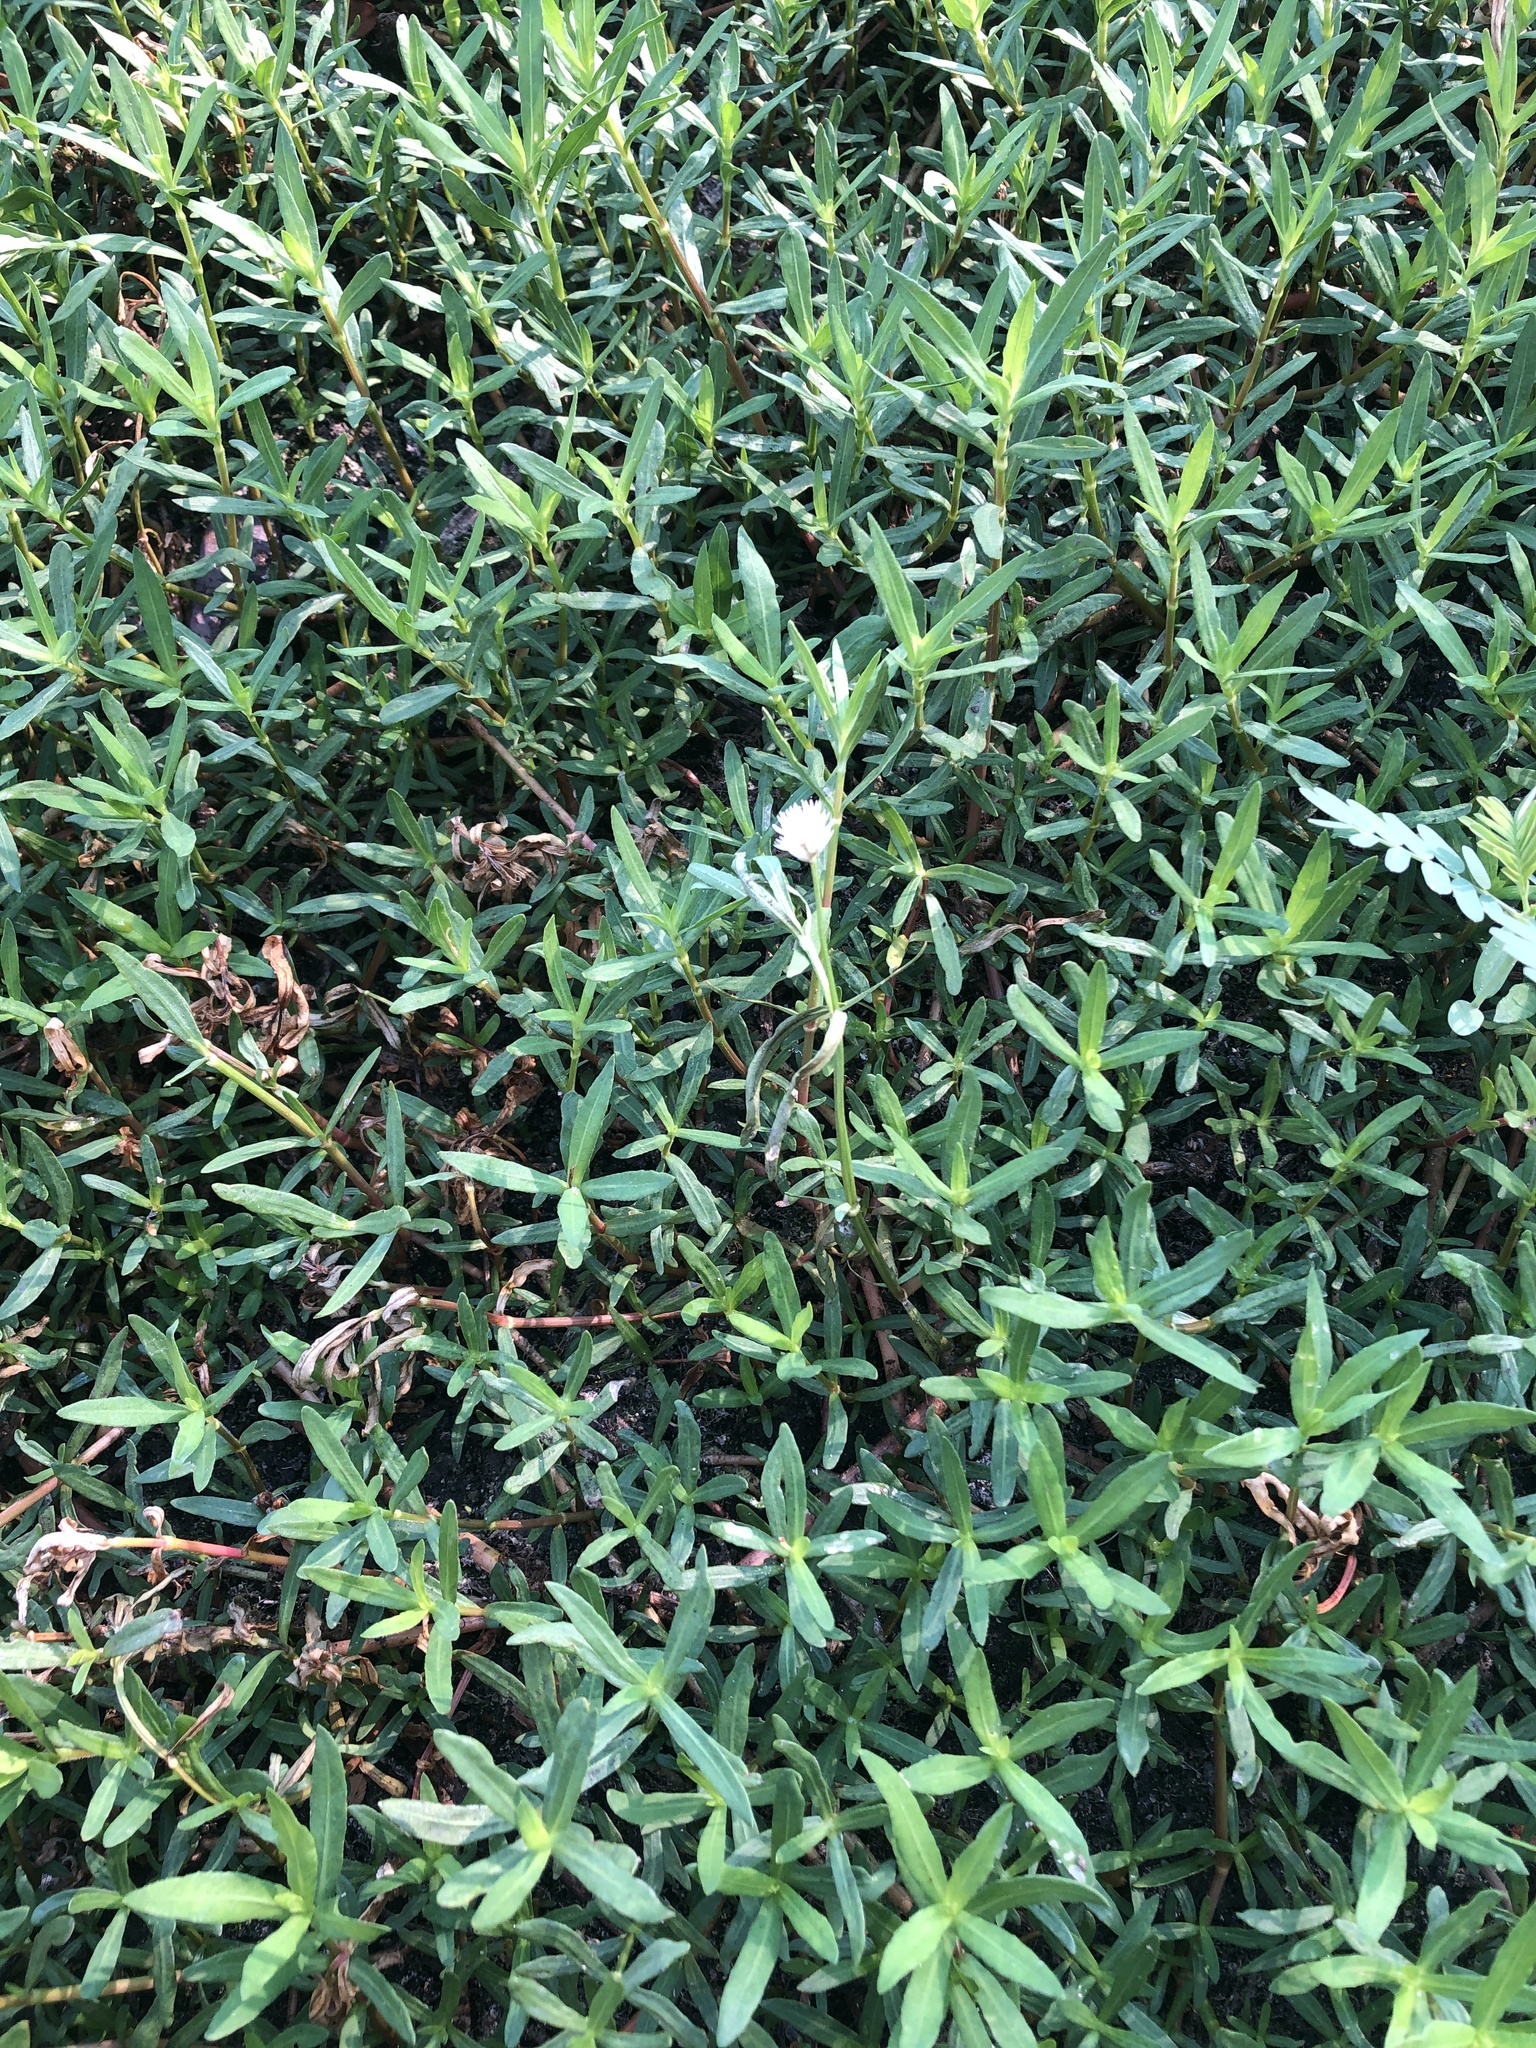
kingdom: Plantae
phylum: Tracheophyta
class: Magnoliopsida
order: Caryophyllales
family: Amaranthaceae
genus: Alternanthera
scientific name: Alternanthera philoxeroides
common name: Alligatorweed
